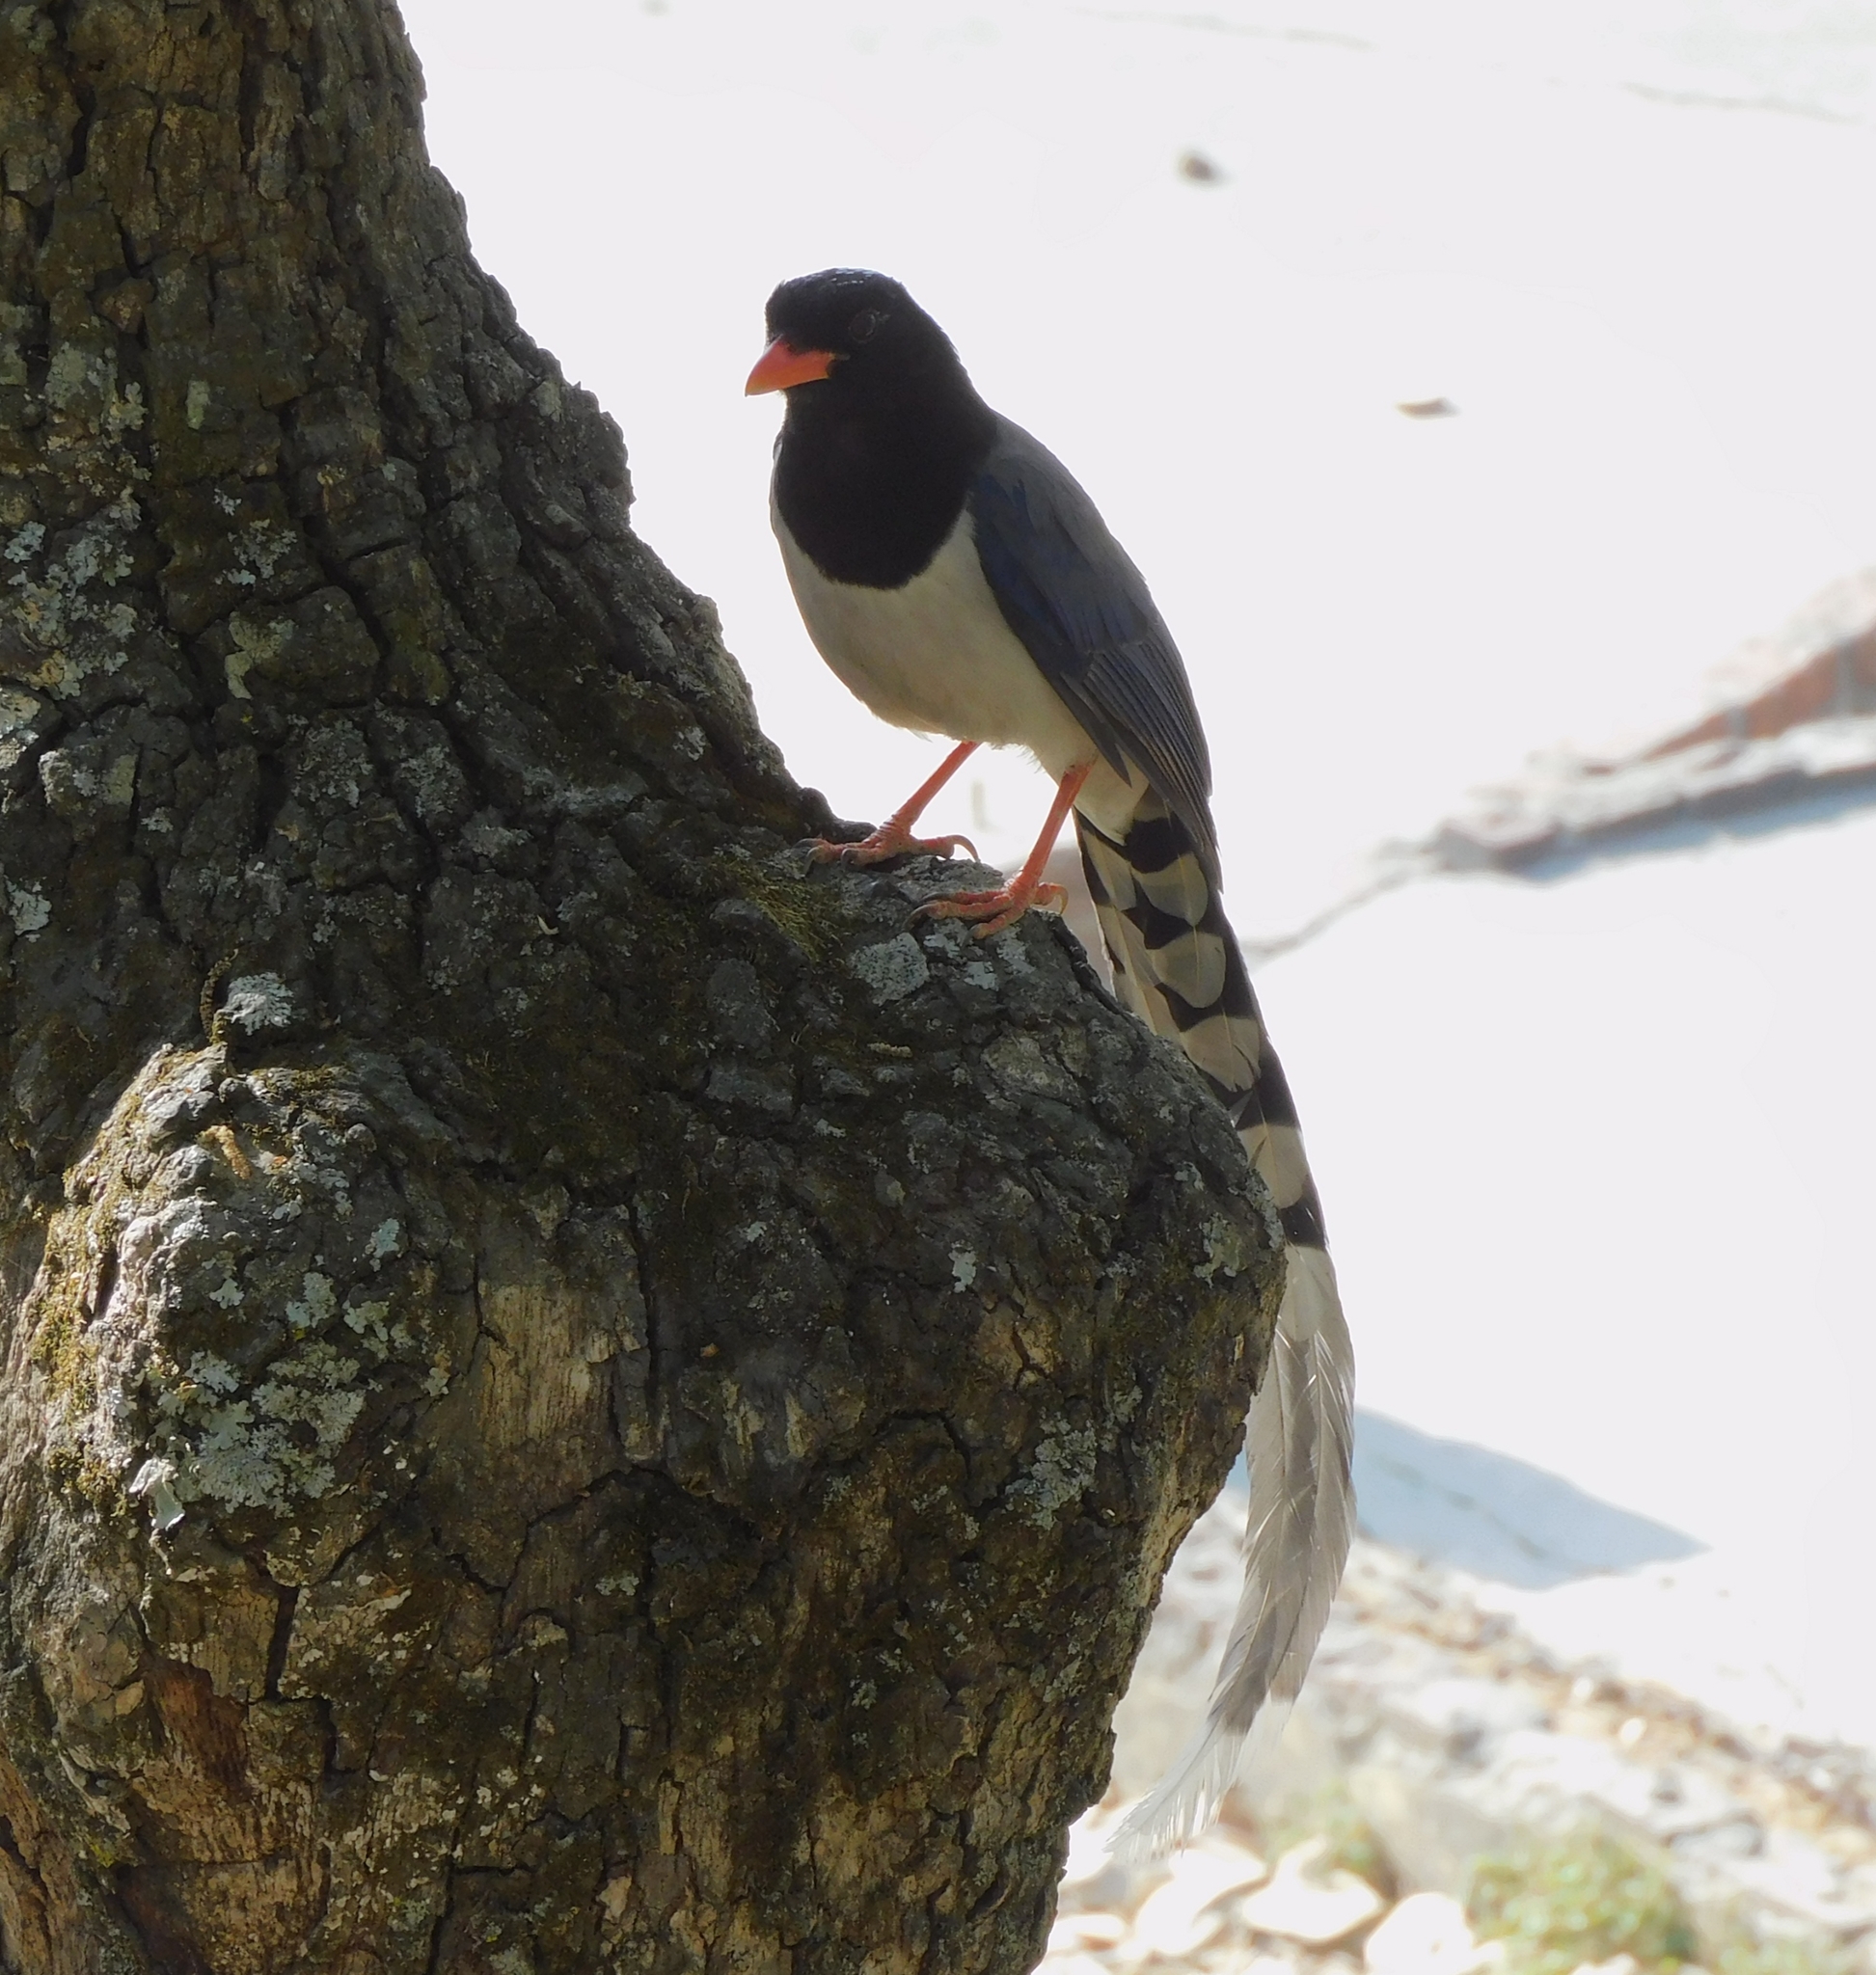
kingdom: Animalia
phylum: Chordata
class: Aves
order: Passeriformes
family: Corvidae
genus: Urocissa
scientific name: Urocissa erythroryncha
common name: Red-billed blue magpie
